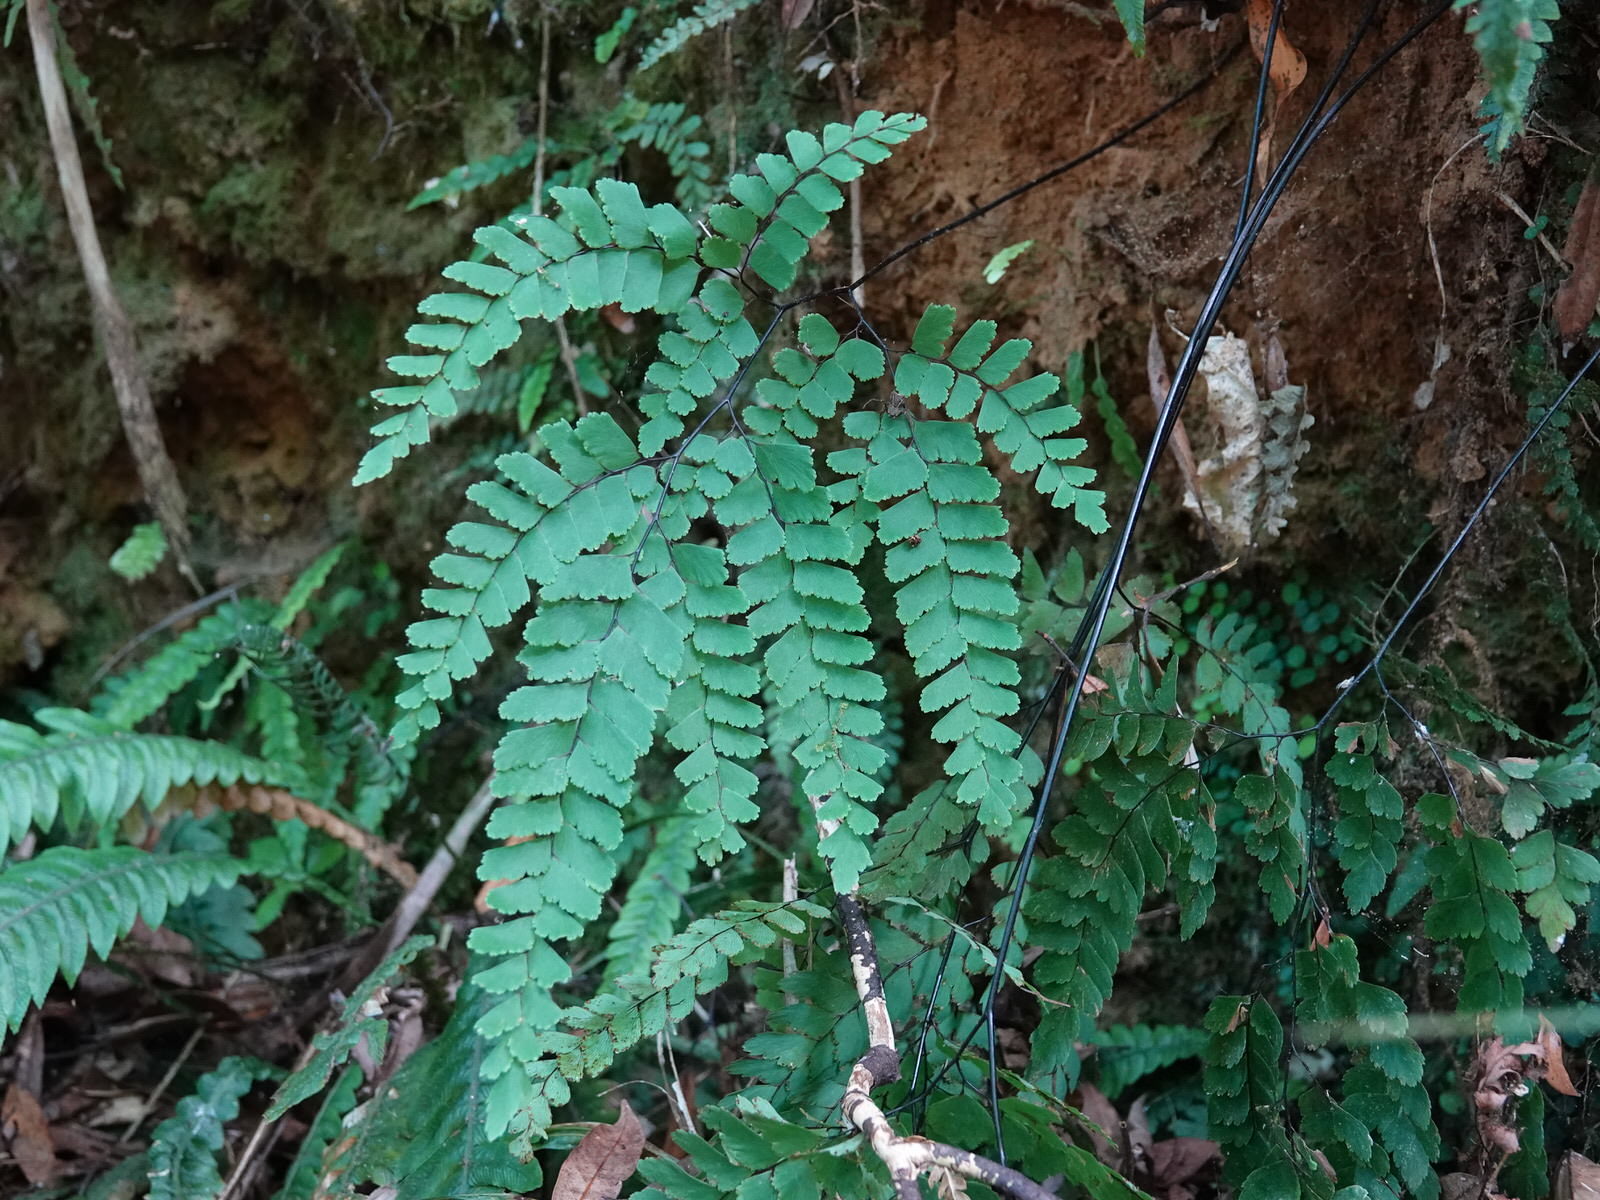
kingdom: Plantae
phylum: Tracheophyta
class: Polypodiopsida
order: Polypodiales
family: Pteridaceae
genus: Adiantum
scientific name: Adiantum cunninghamii
